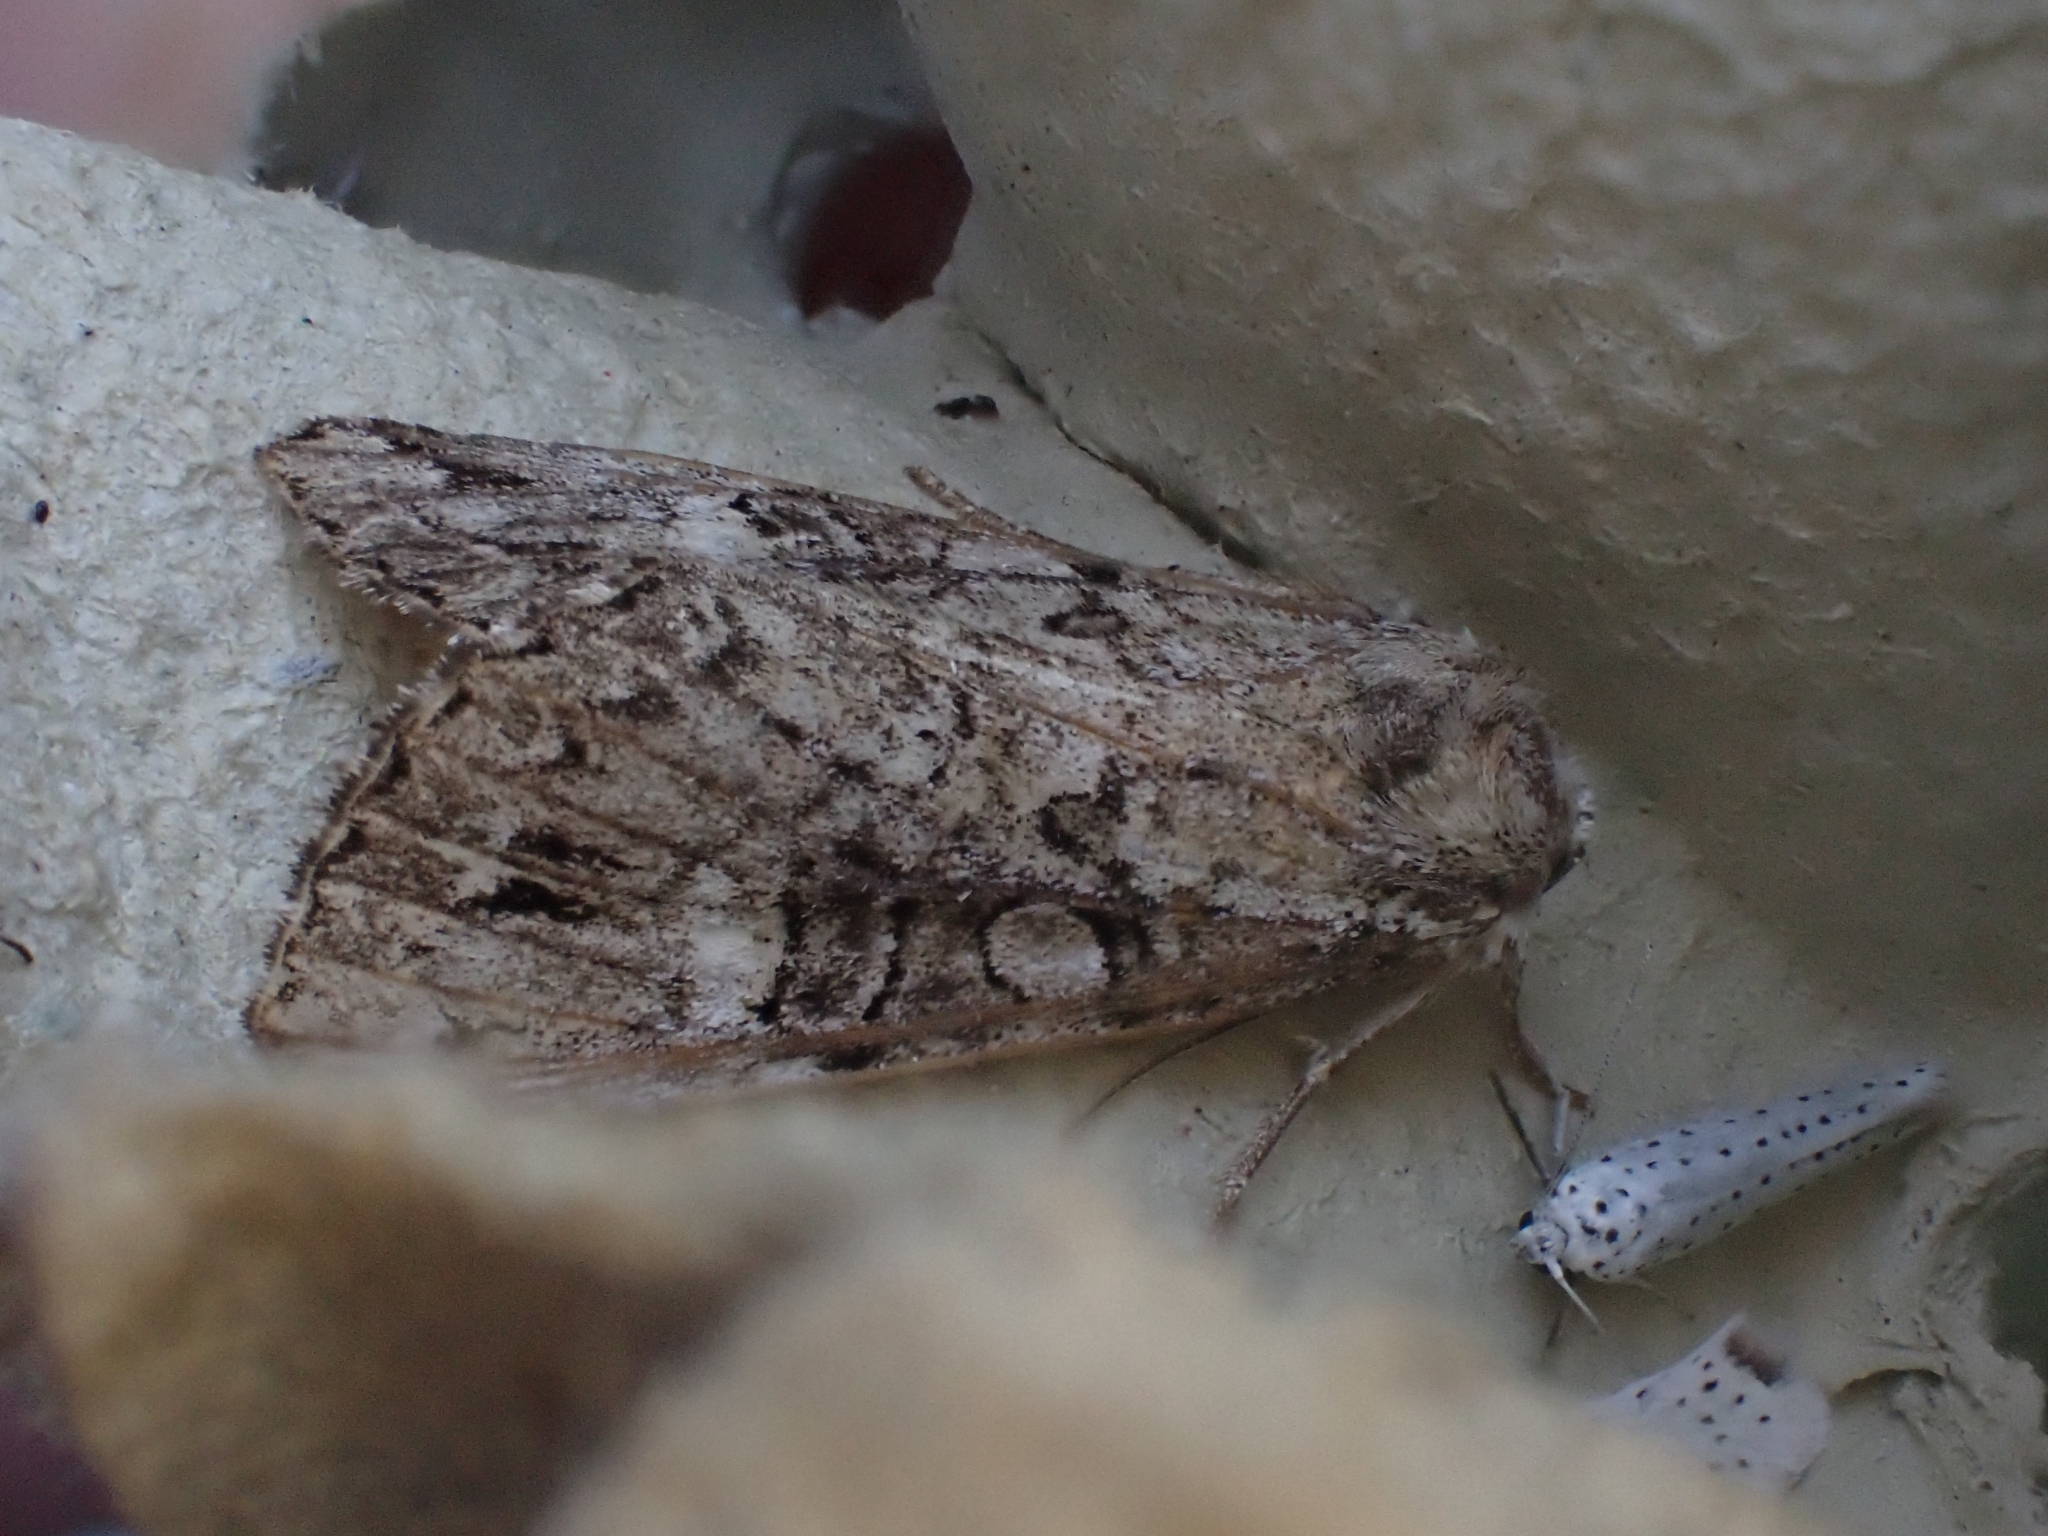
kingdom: Animalia
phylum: Arthropoda
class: Insecta
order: Lepidoptera
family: Noctuidae
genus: Anaplectoides
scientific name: Anaplectoides prasina
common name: Green arches
